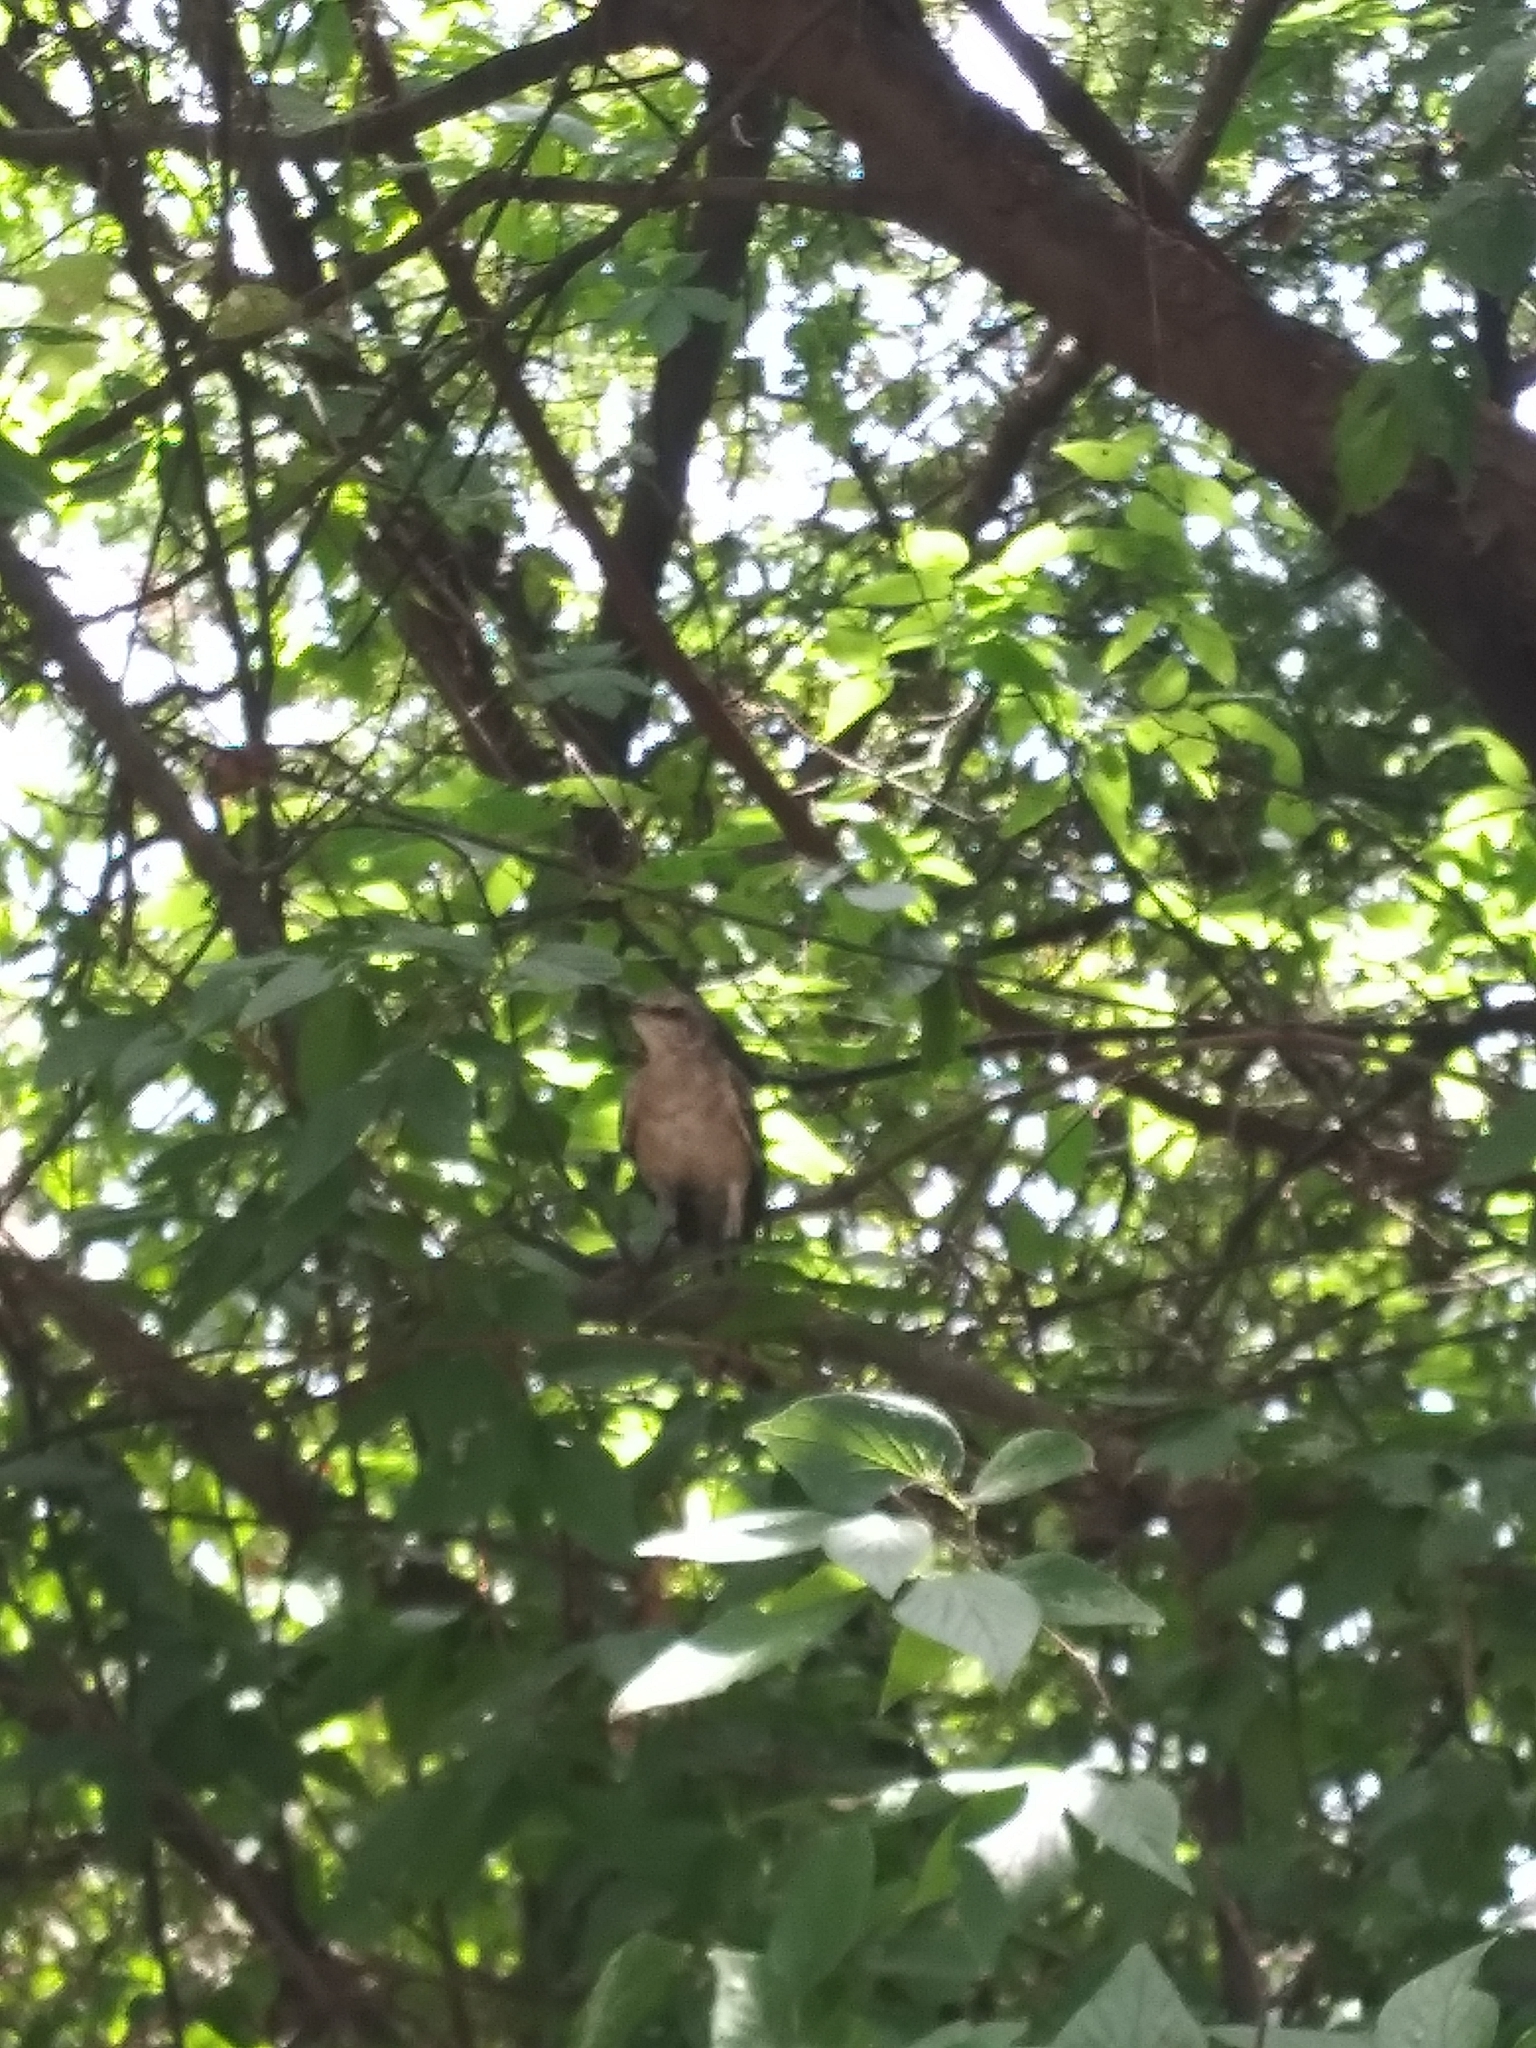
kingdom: Animalia
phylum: Chordata
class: Aves
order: Passeriformes
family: Mimidae
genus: Mimus
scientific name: Mimus polyglottos
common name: Northern mockingbird
